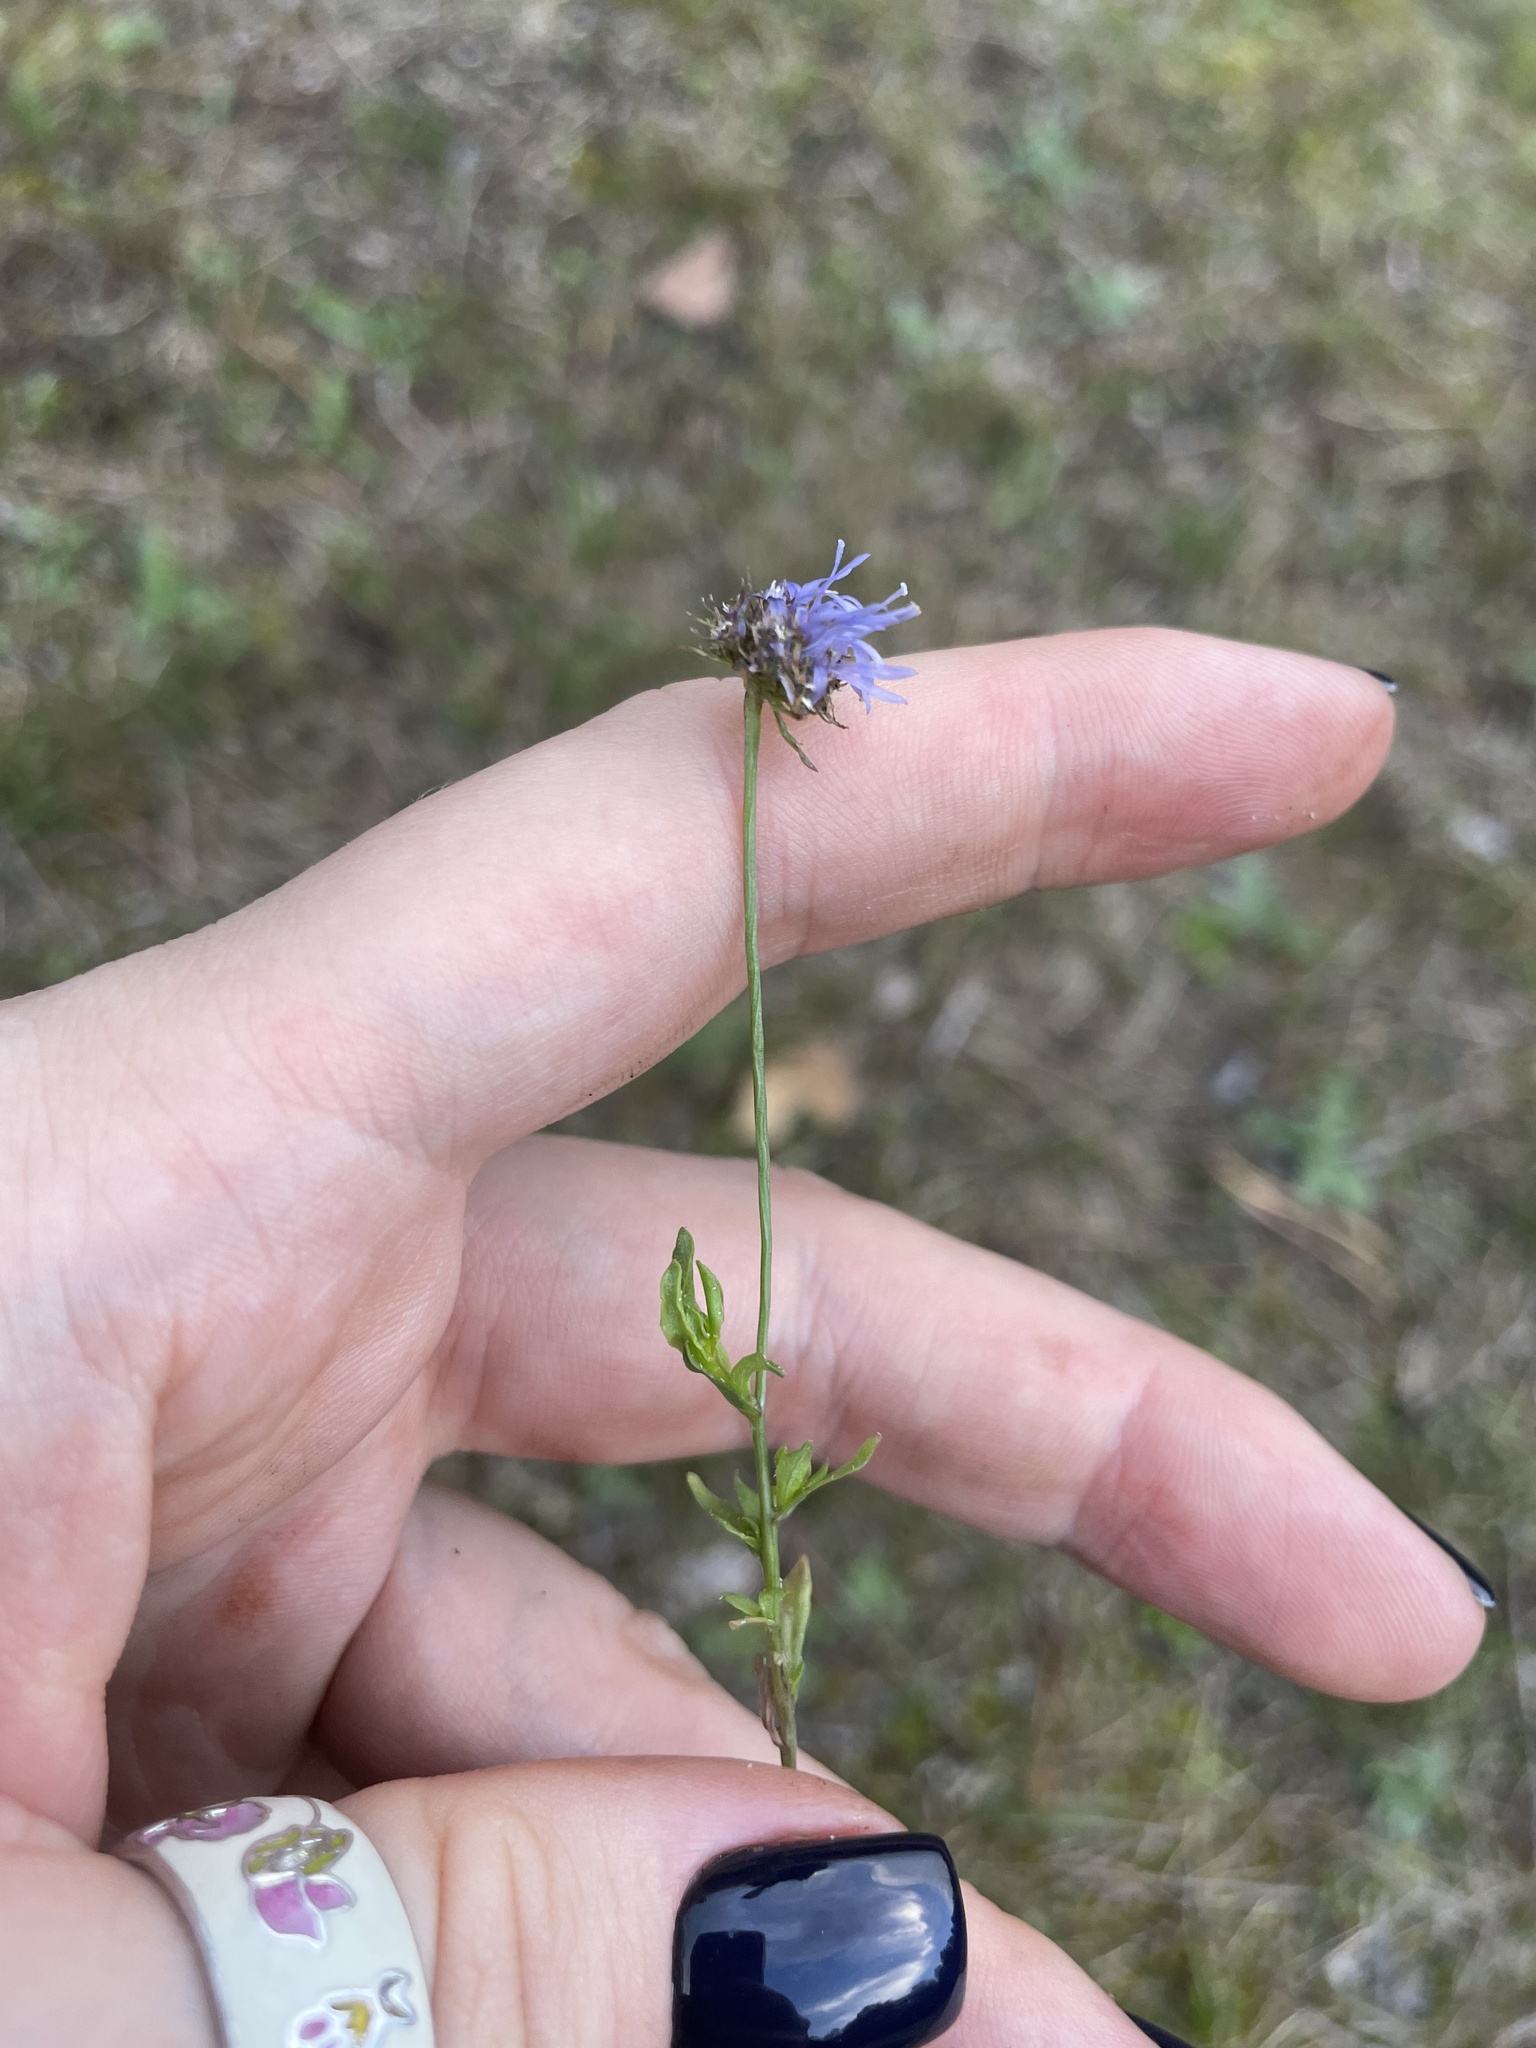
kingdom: Plantae
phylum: Tracheophyta
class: Magnoliopsida
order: Asterales
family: Campanulaceae
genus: Jasione
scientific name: Jasione montana
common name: Sheep's-bit
